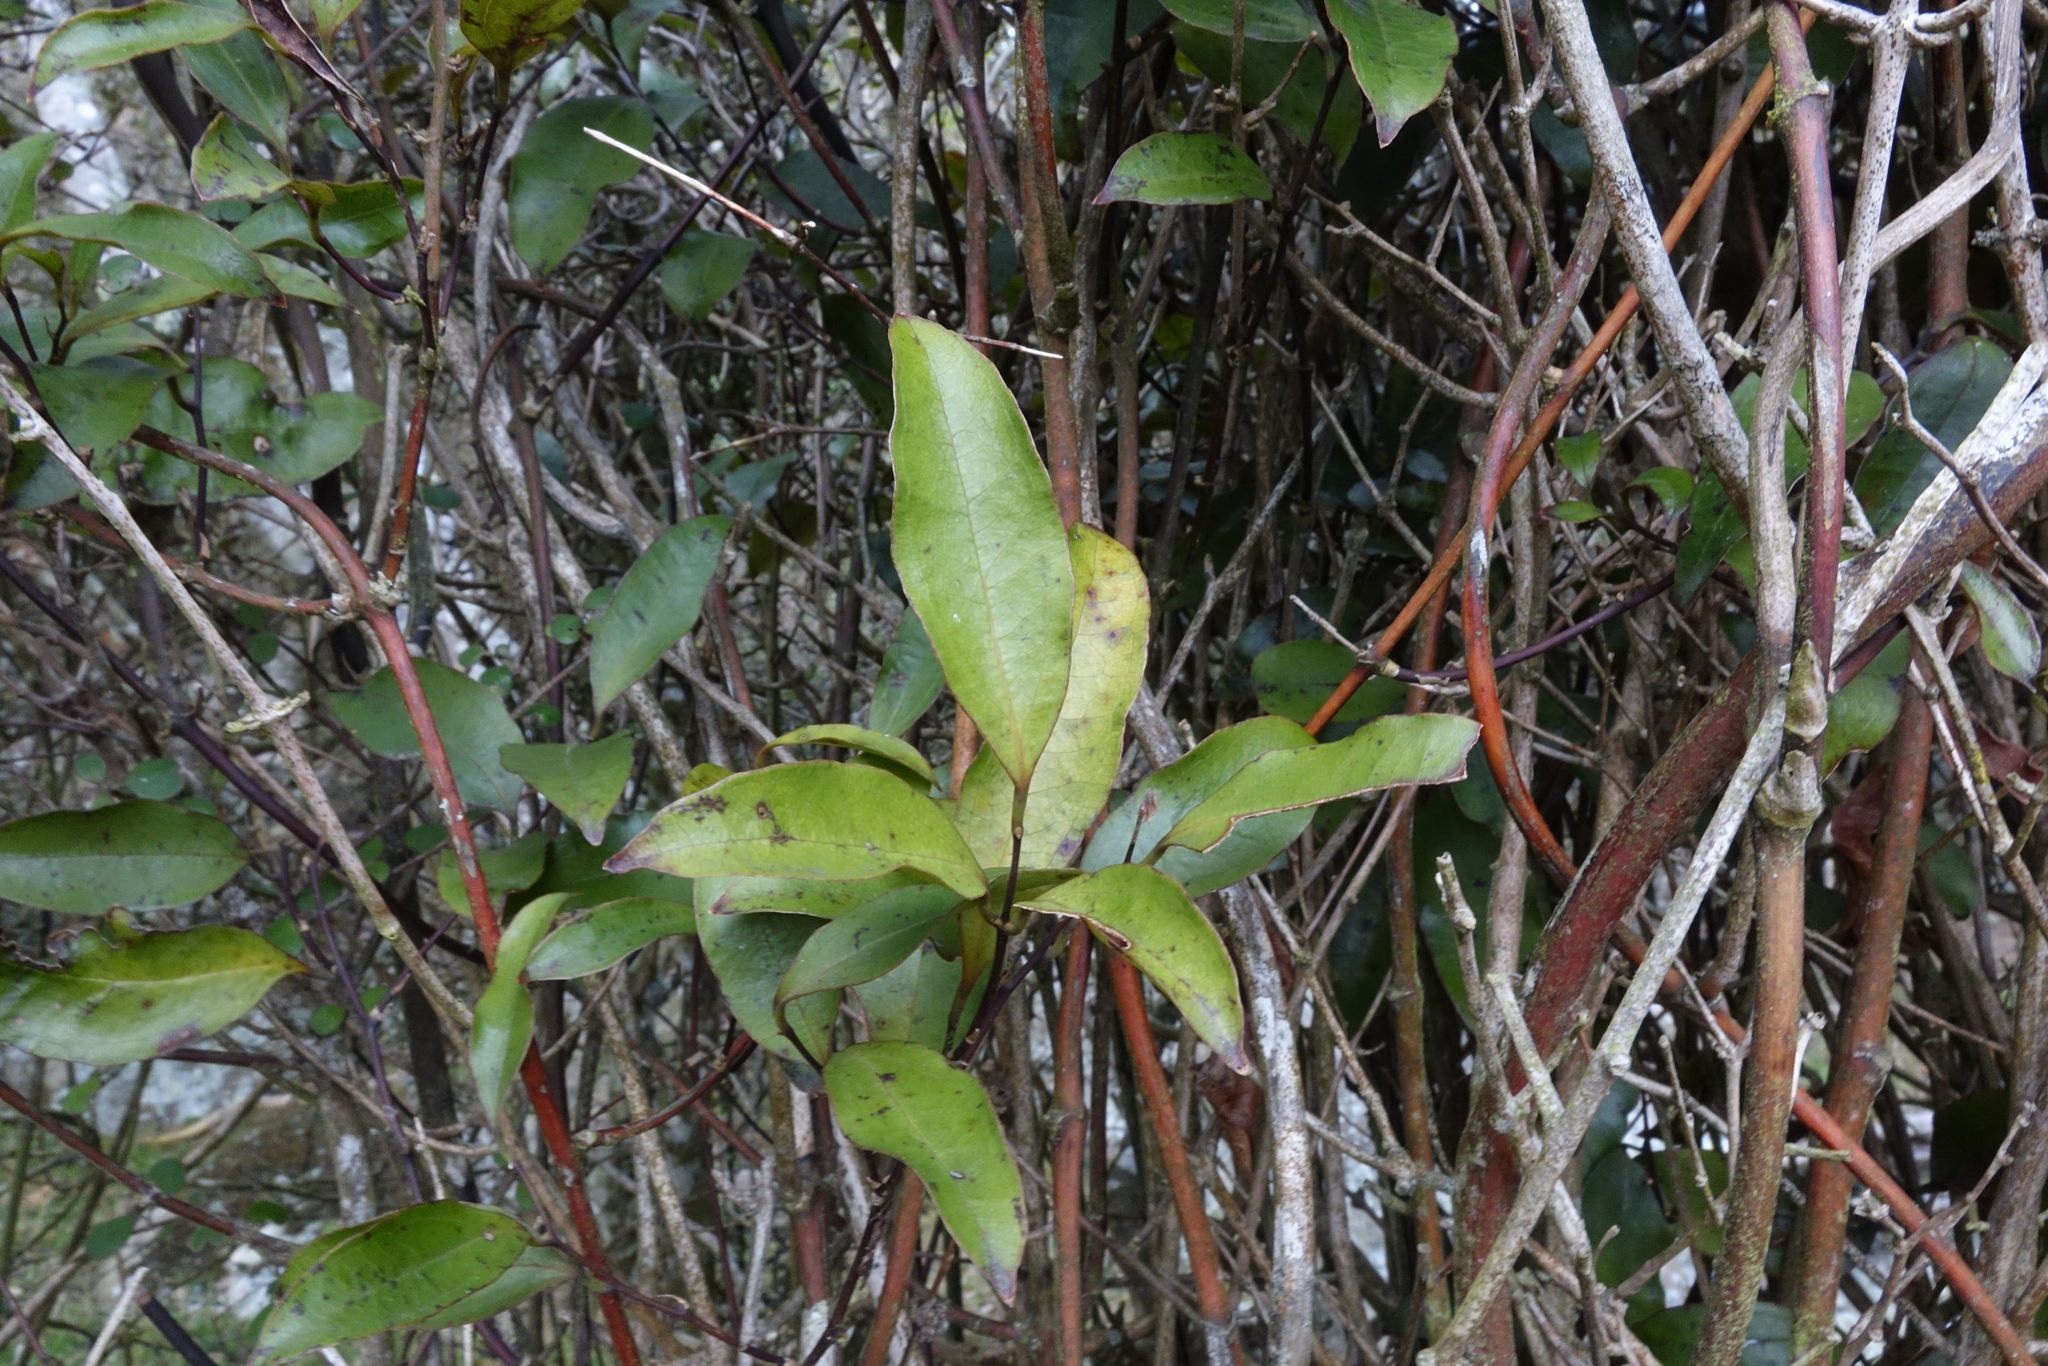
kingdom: Plantae
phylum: Tracheophyta
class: Liliopsida
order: Liliales
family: Ripogonaceae
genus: Ripogonum
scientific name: Ripogonum scandens
